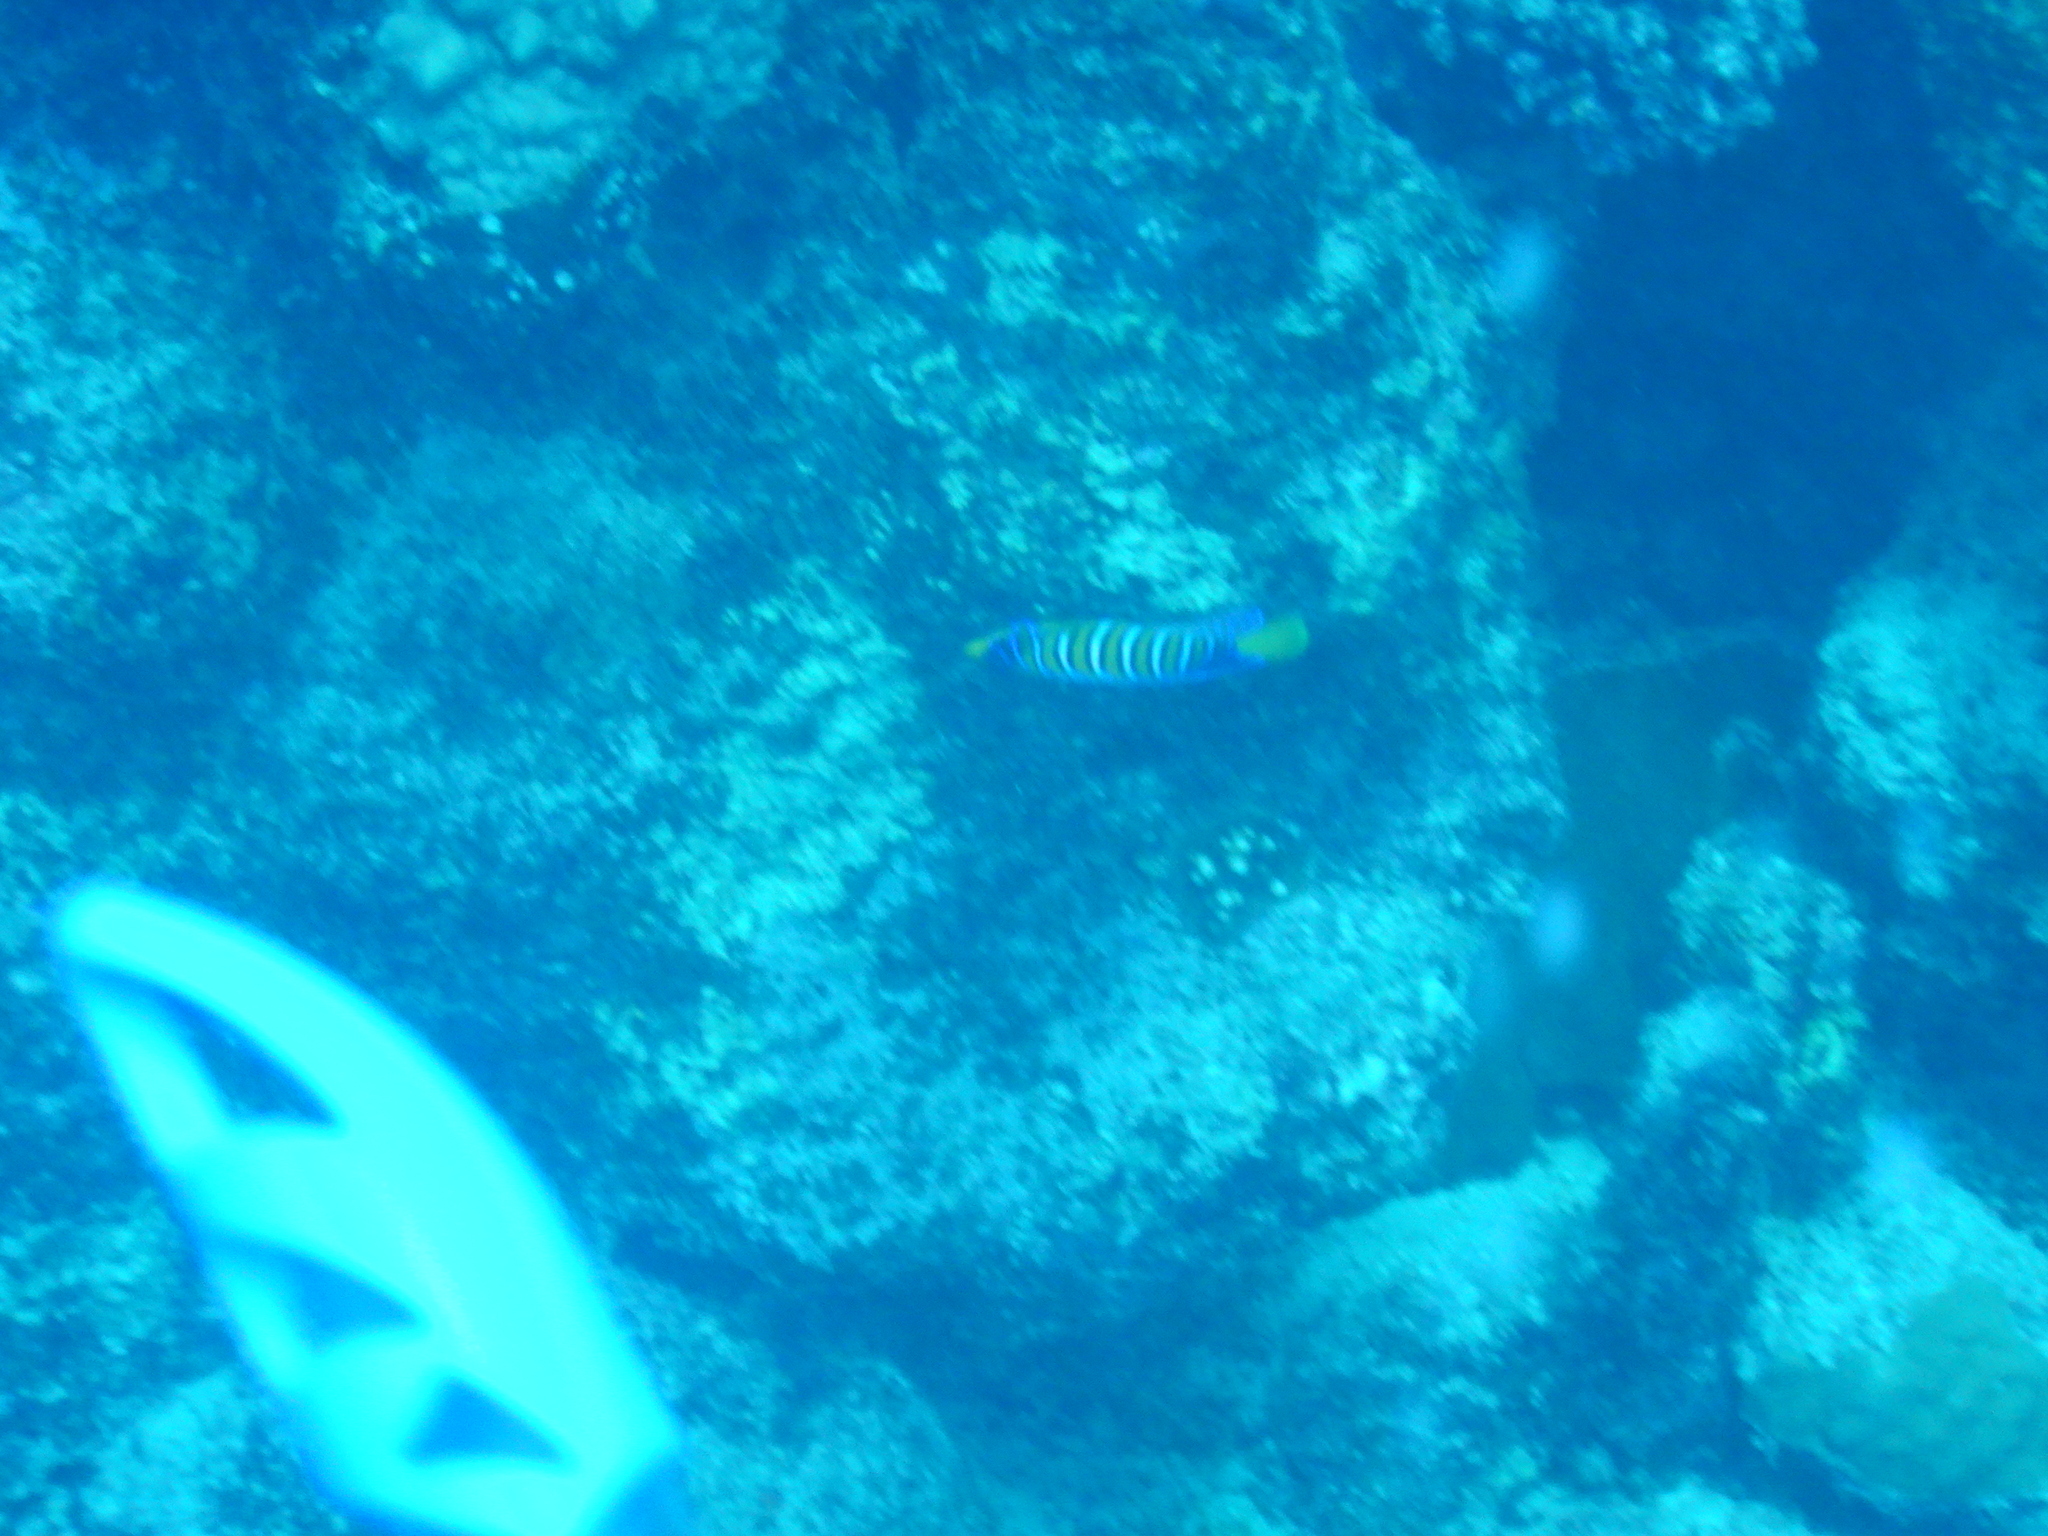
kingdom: Animalia
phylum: Chordata
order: Perciformes
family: Pomacanthidae
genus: Pygoplites
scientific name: Pygoplites diacanthus
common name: Regal angelfish
